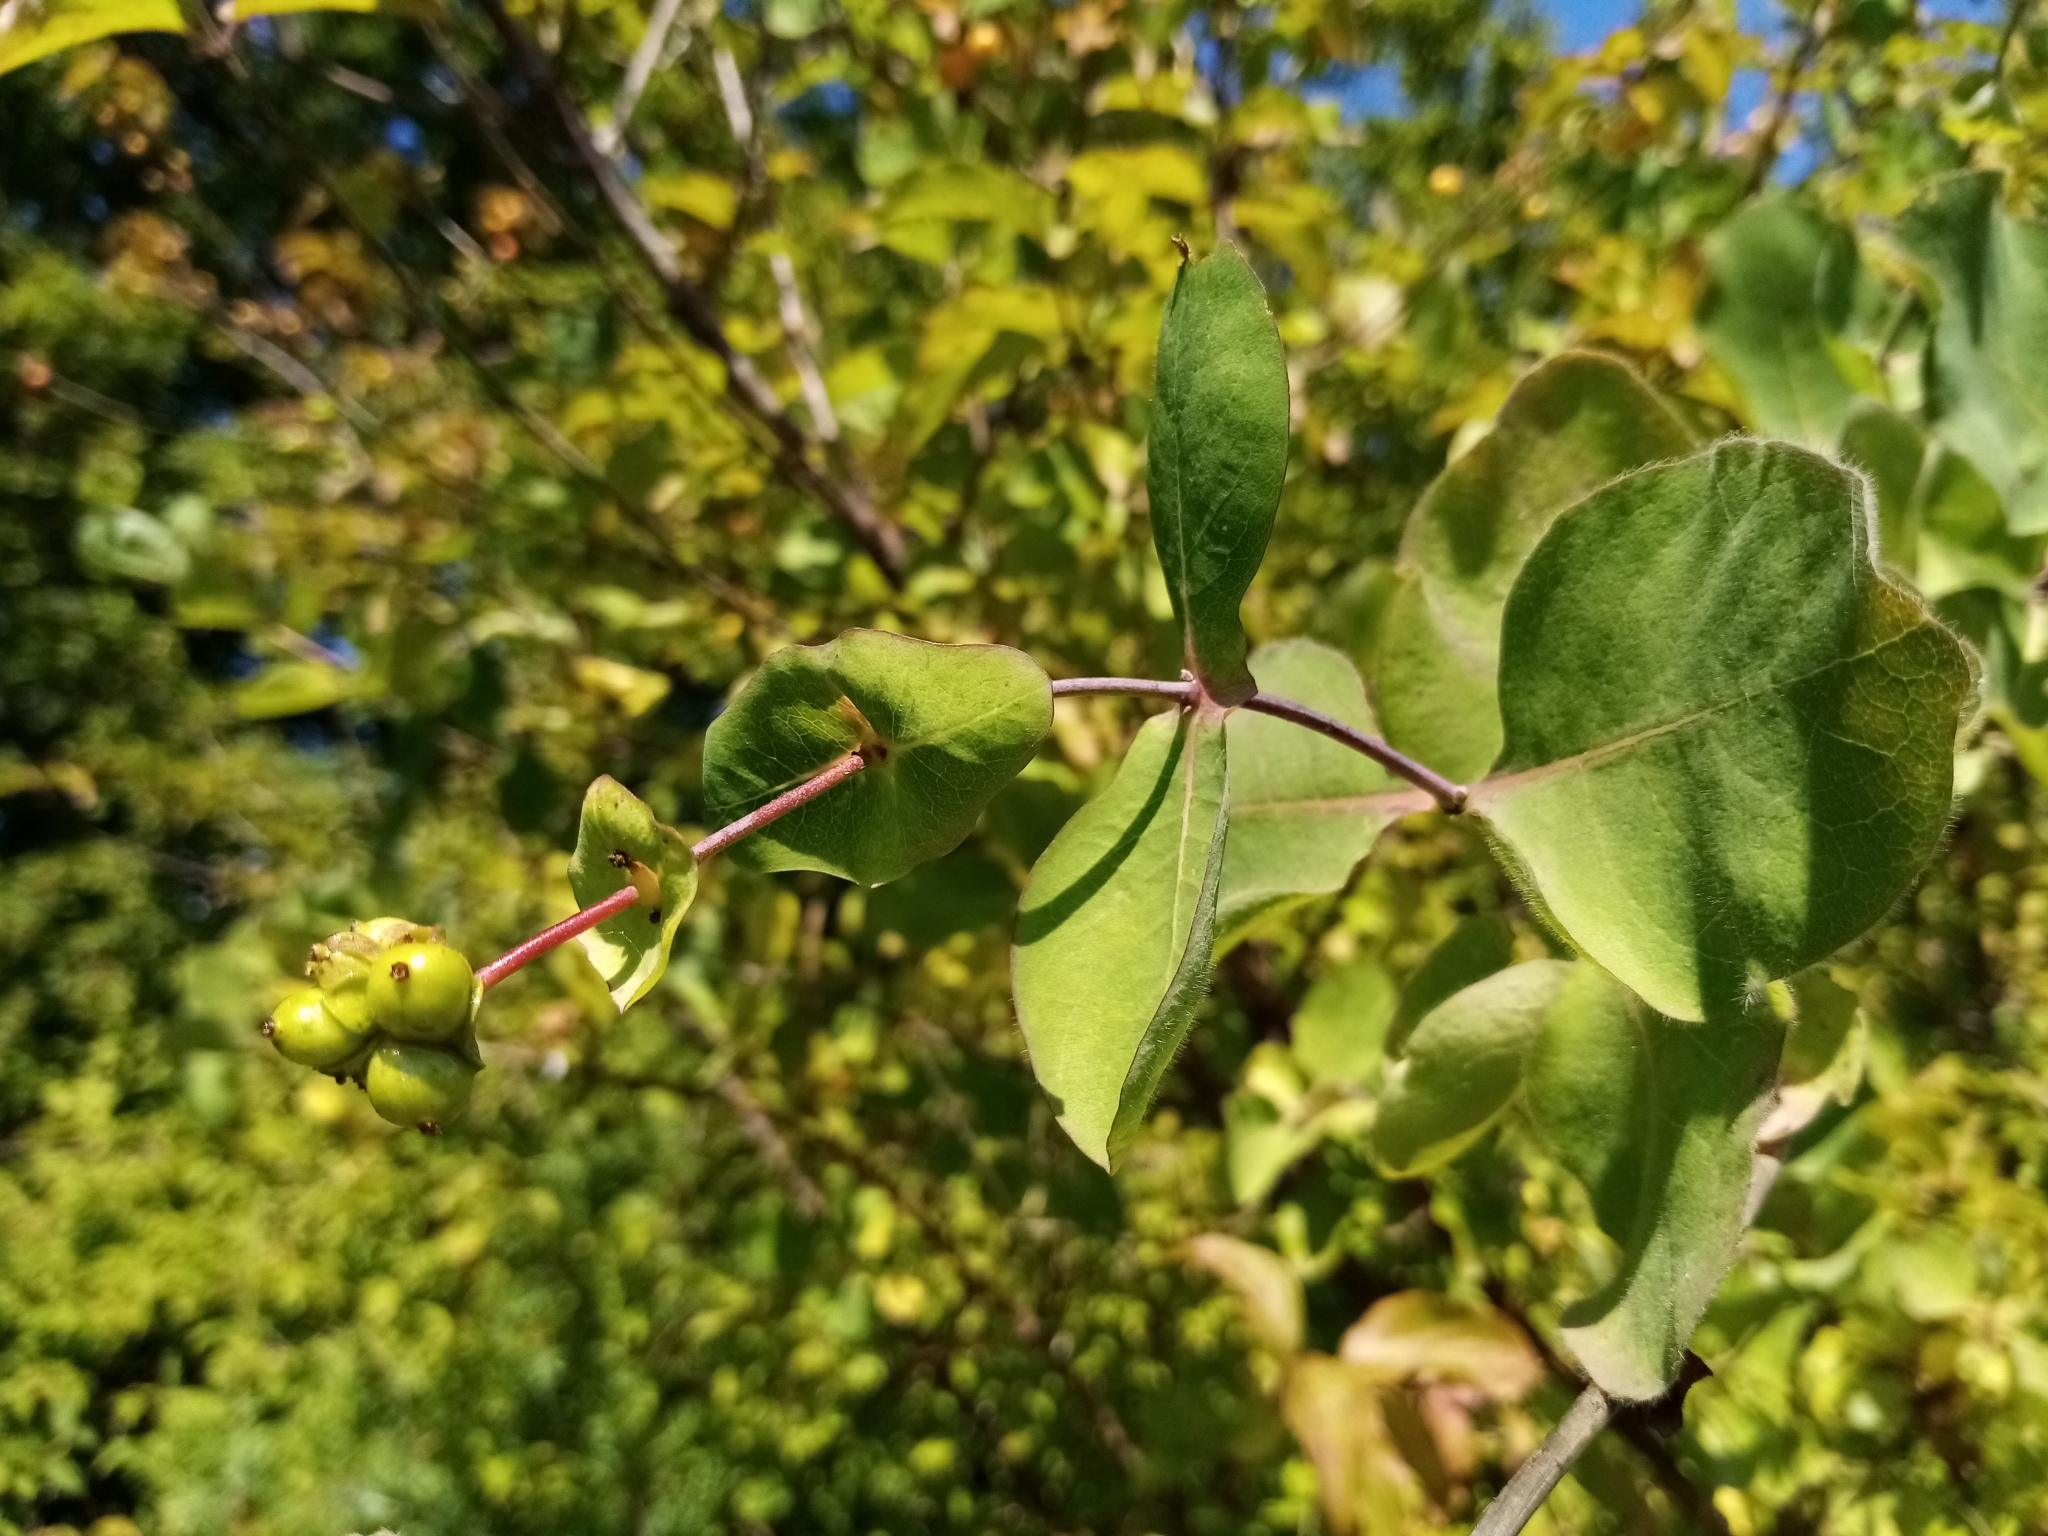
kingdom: Plantae
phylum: Tracheophyta
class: Magnoliopsida
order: Dipsacales
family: Caprifoliaceae
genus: Lonicera
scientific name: Lonicera etrusca
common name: Etruscan honeysuckle
